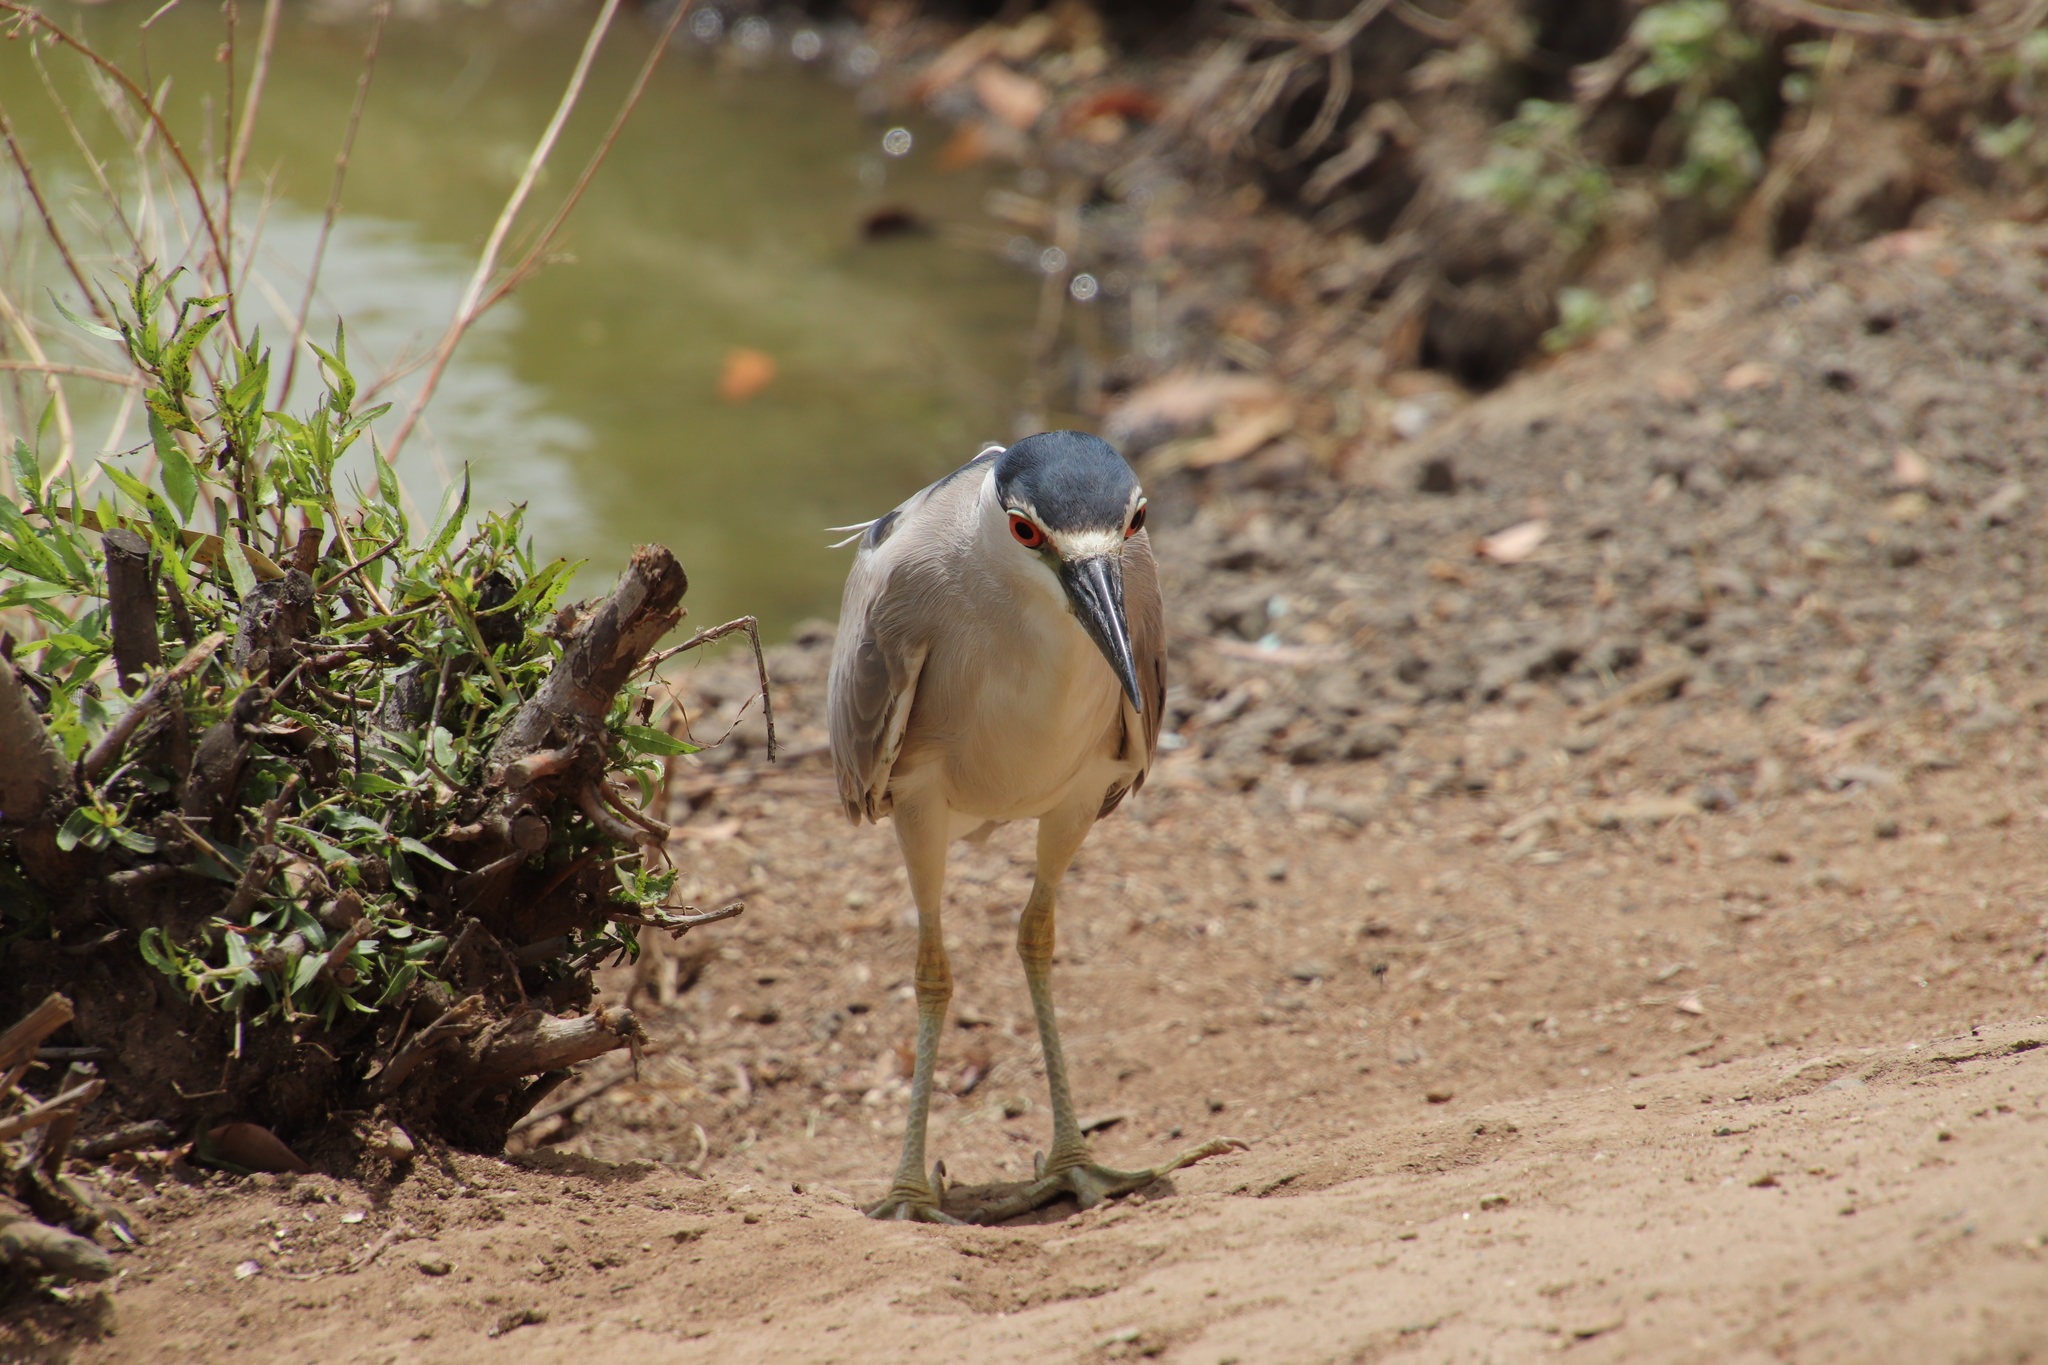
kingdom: Animalia
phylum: Chordata
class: Aves
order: Pelecaniformes
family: Ardeidae
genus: Nycticorax
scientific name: Nycticorax nycticorax
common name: Black-crowned night heron
